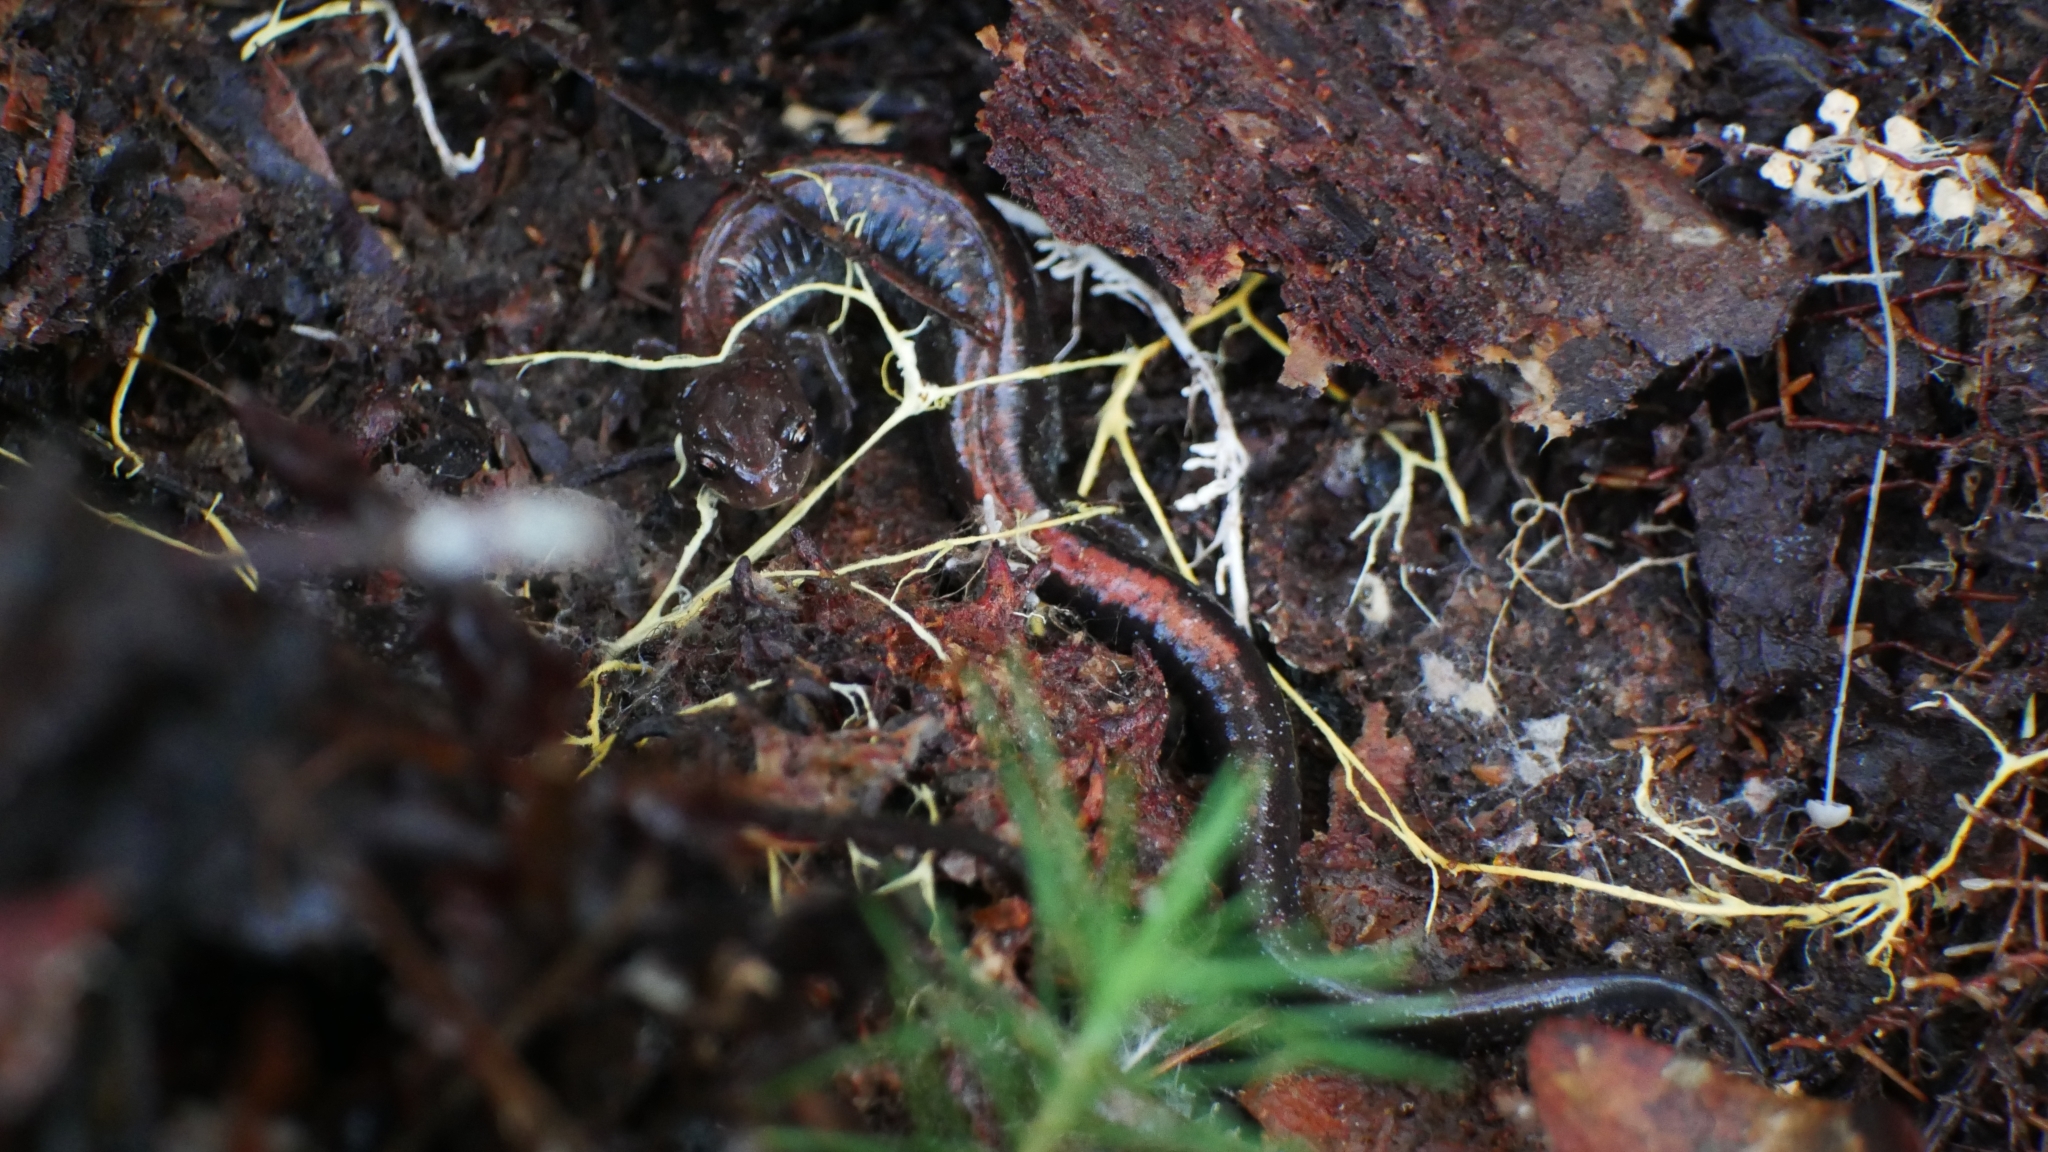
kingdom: Animalia
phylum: Chordata
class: Amphibia
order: Caudata
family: Plethodontidae
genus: Plethodon
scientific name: Plethodon cinereus
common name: Redback salamander
